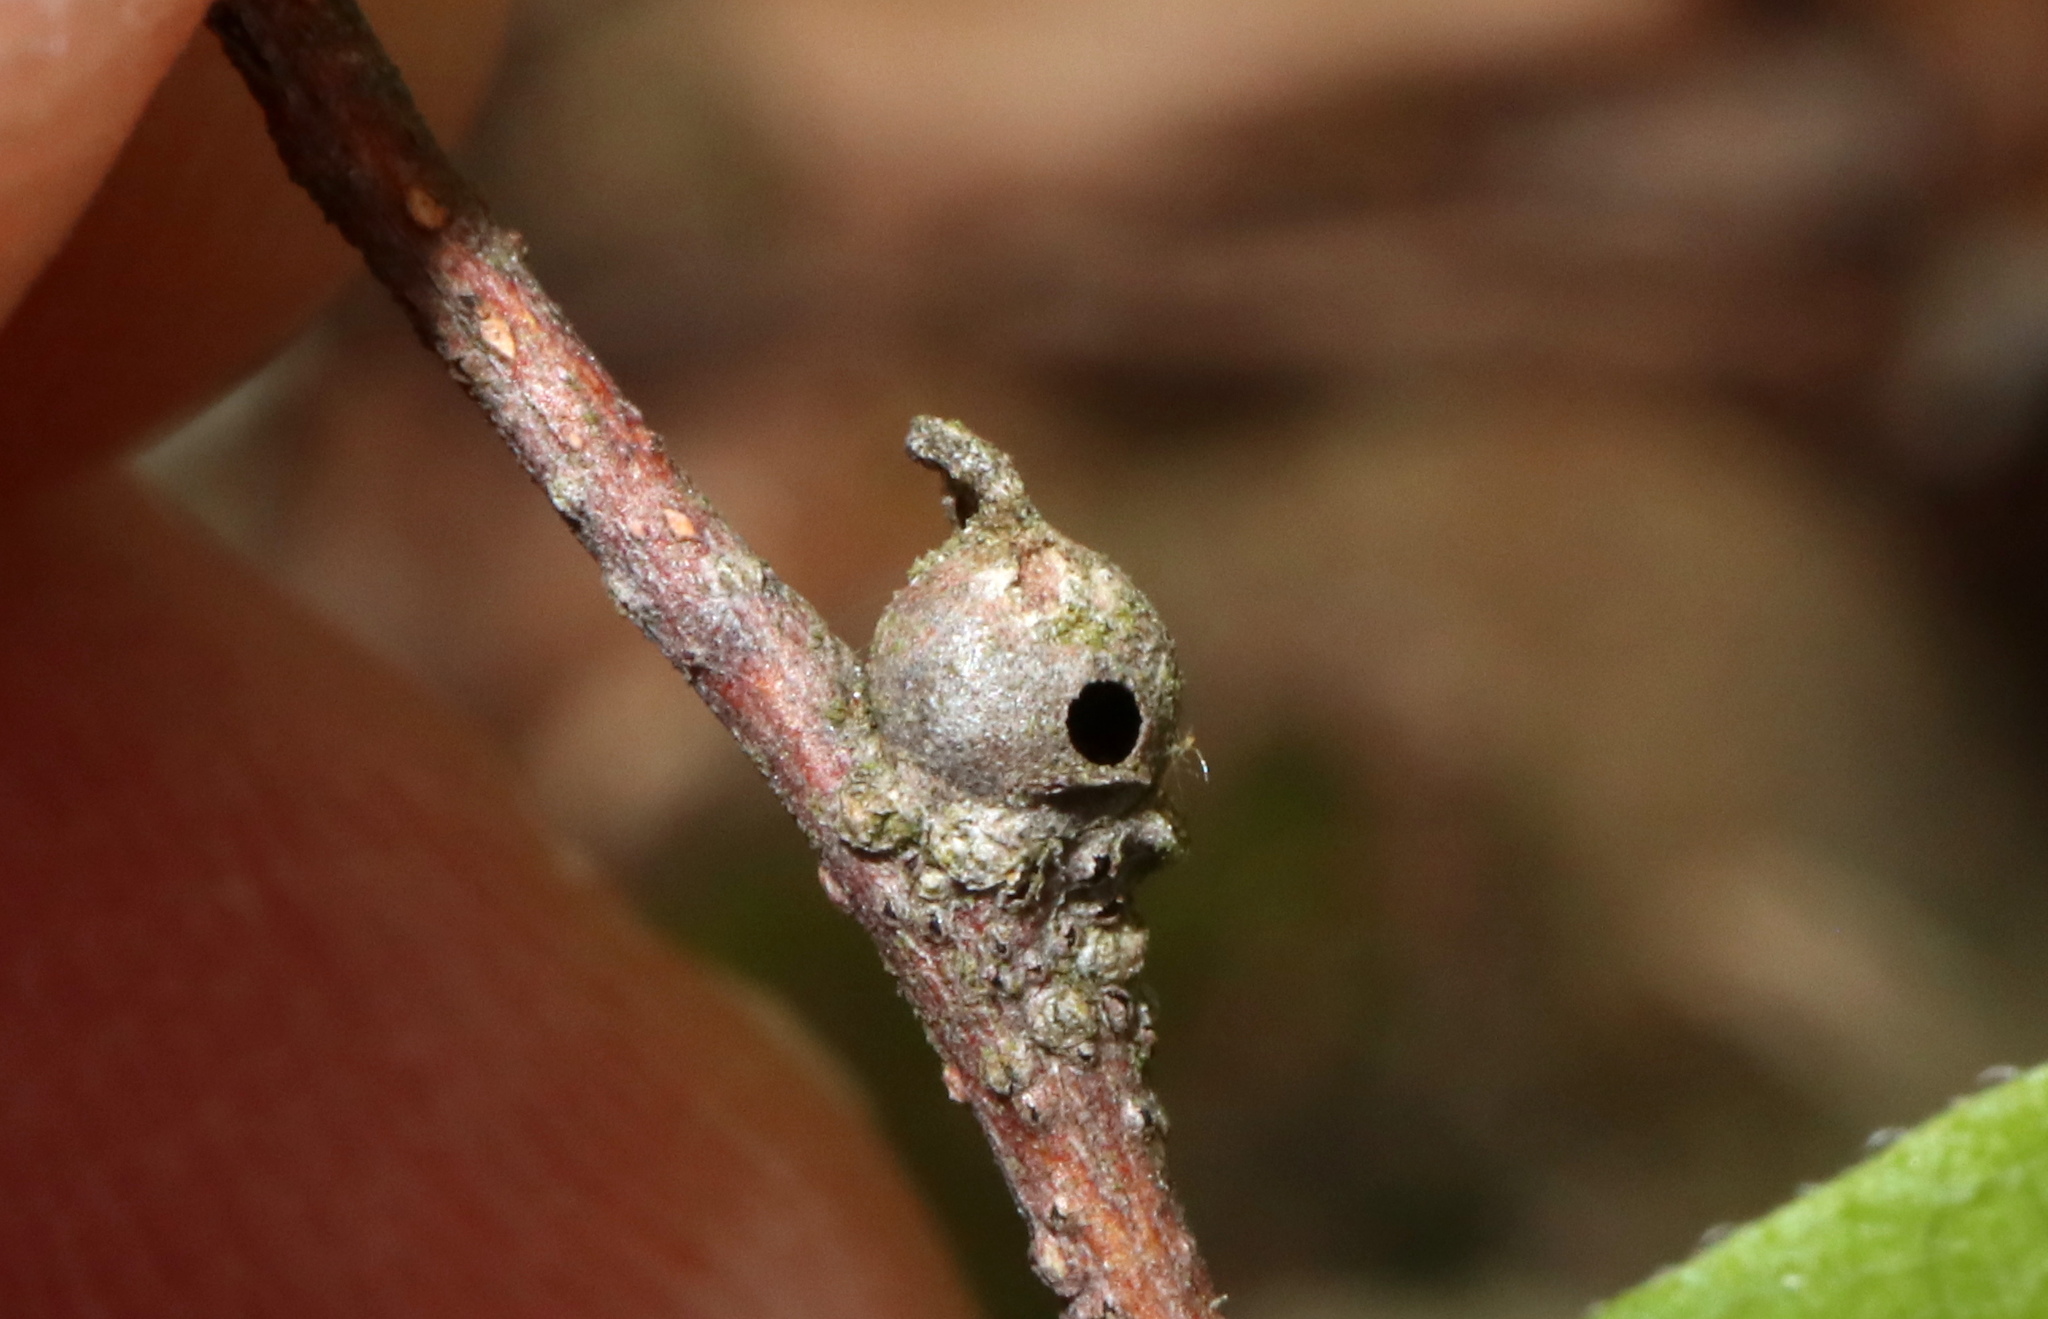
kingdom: Animalia
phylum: Arthropoda
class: Insecta
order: Hemiptera
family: Aphalaridae
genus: Pachypsylla
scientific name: Pachypsylla celtidisgemma
